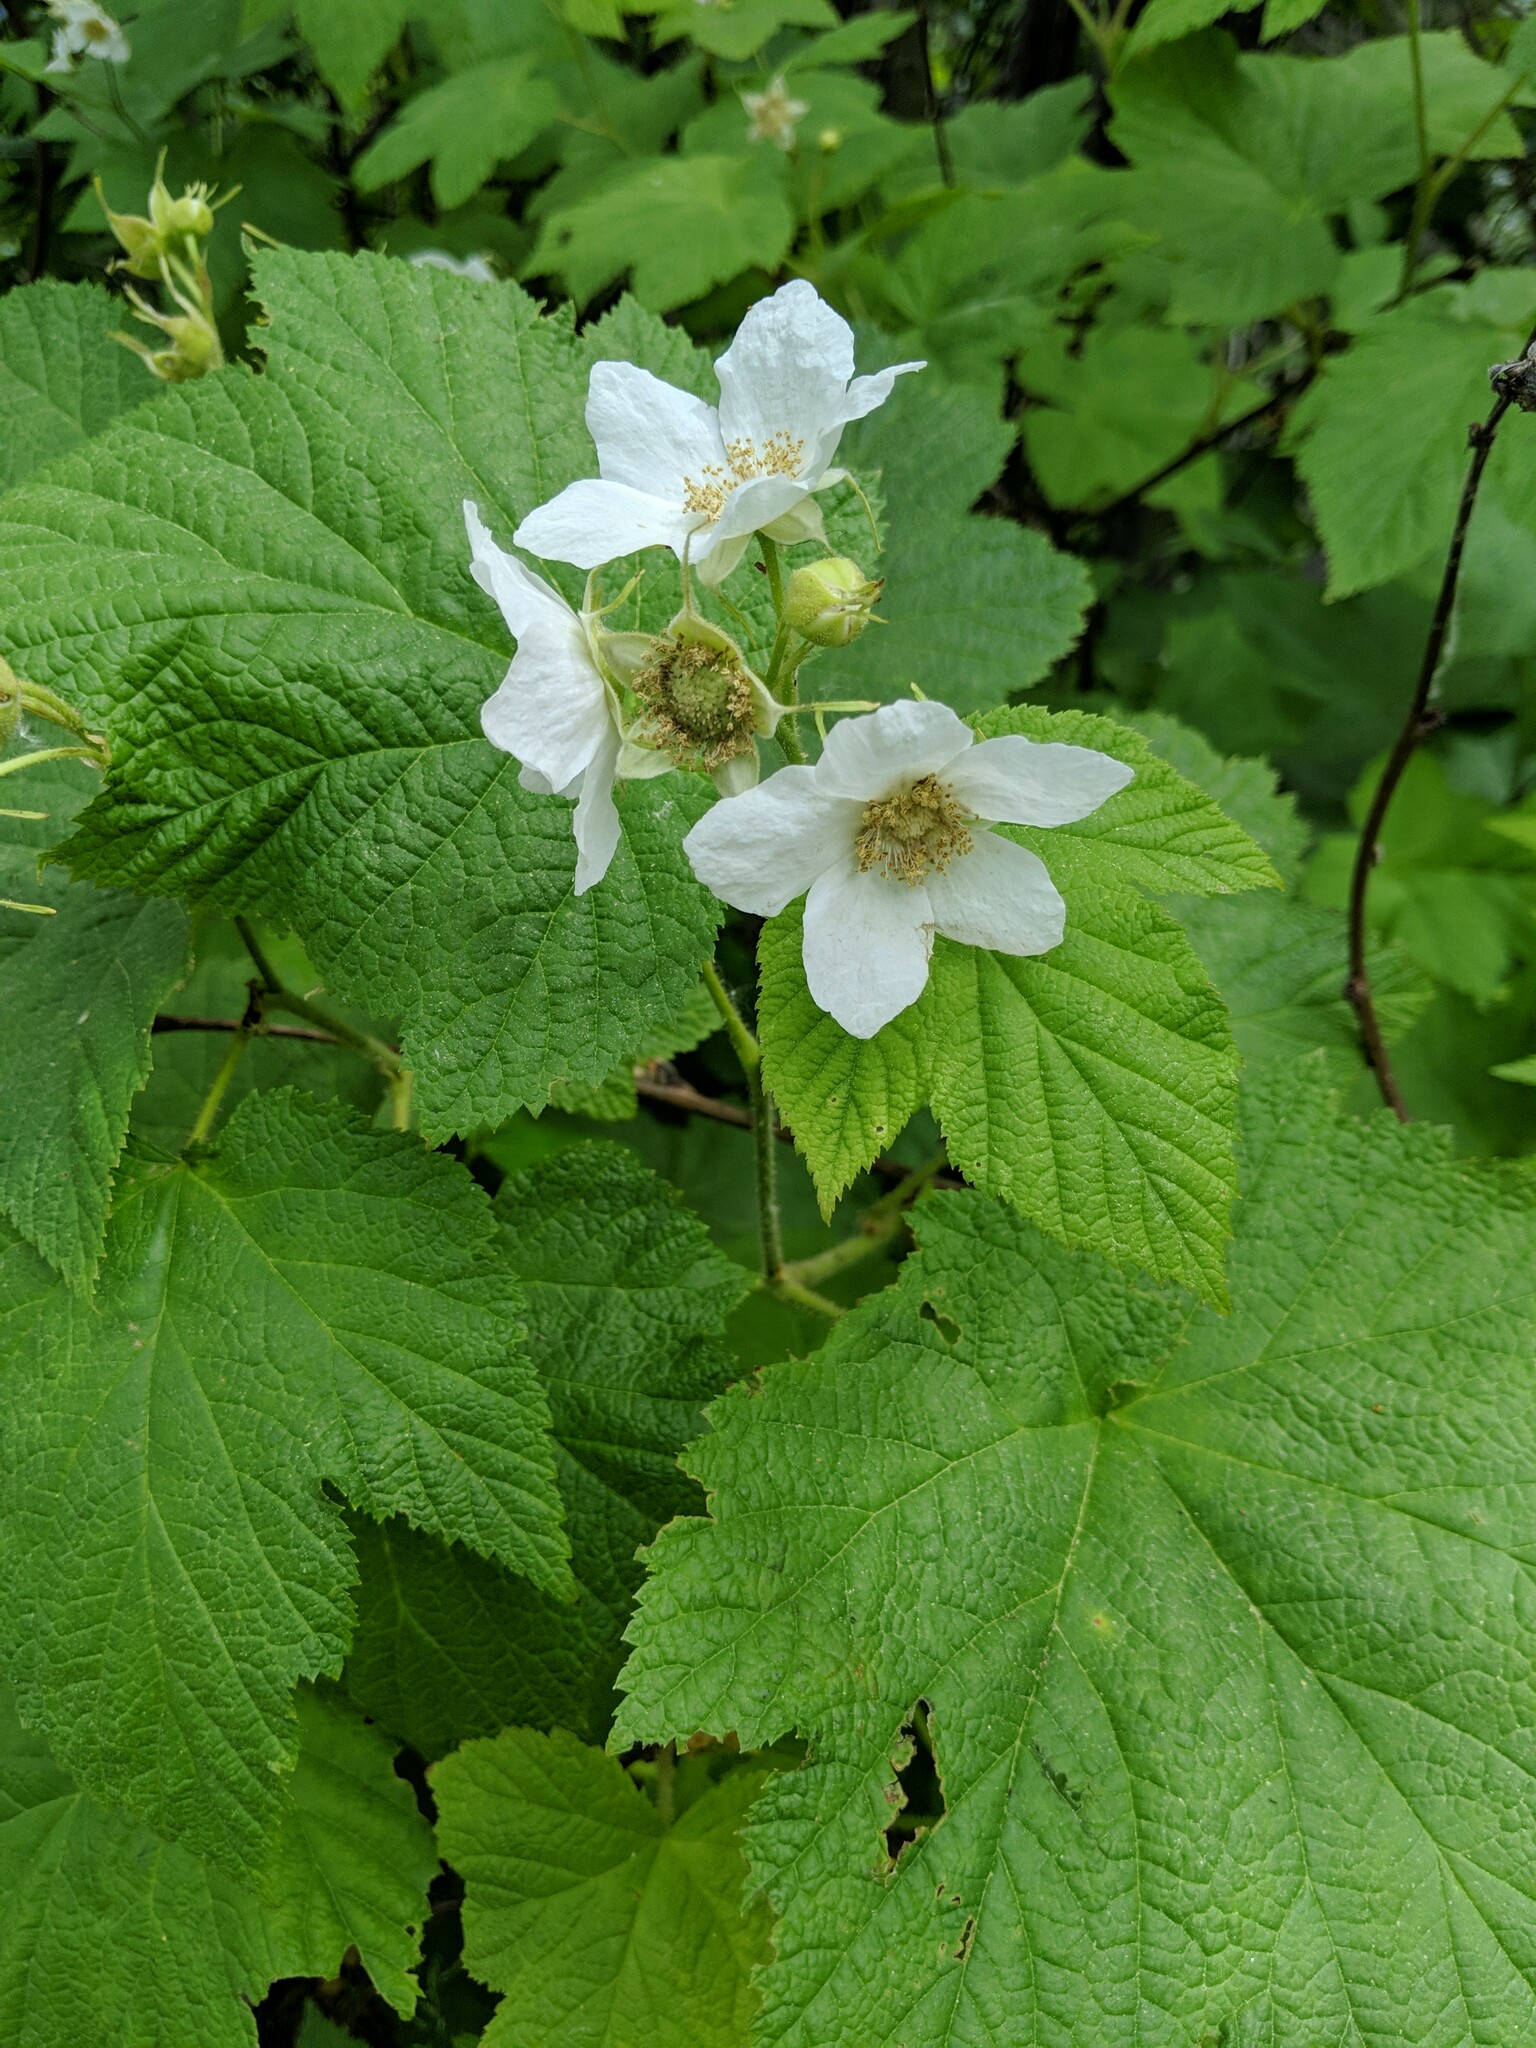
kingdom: Plantae
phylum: Tracheophyta
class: Magnoliopsida
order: Rosales
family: Rosaceae
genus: Rubus
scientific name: Rubus parviflorus
